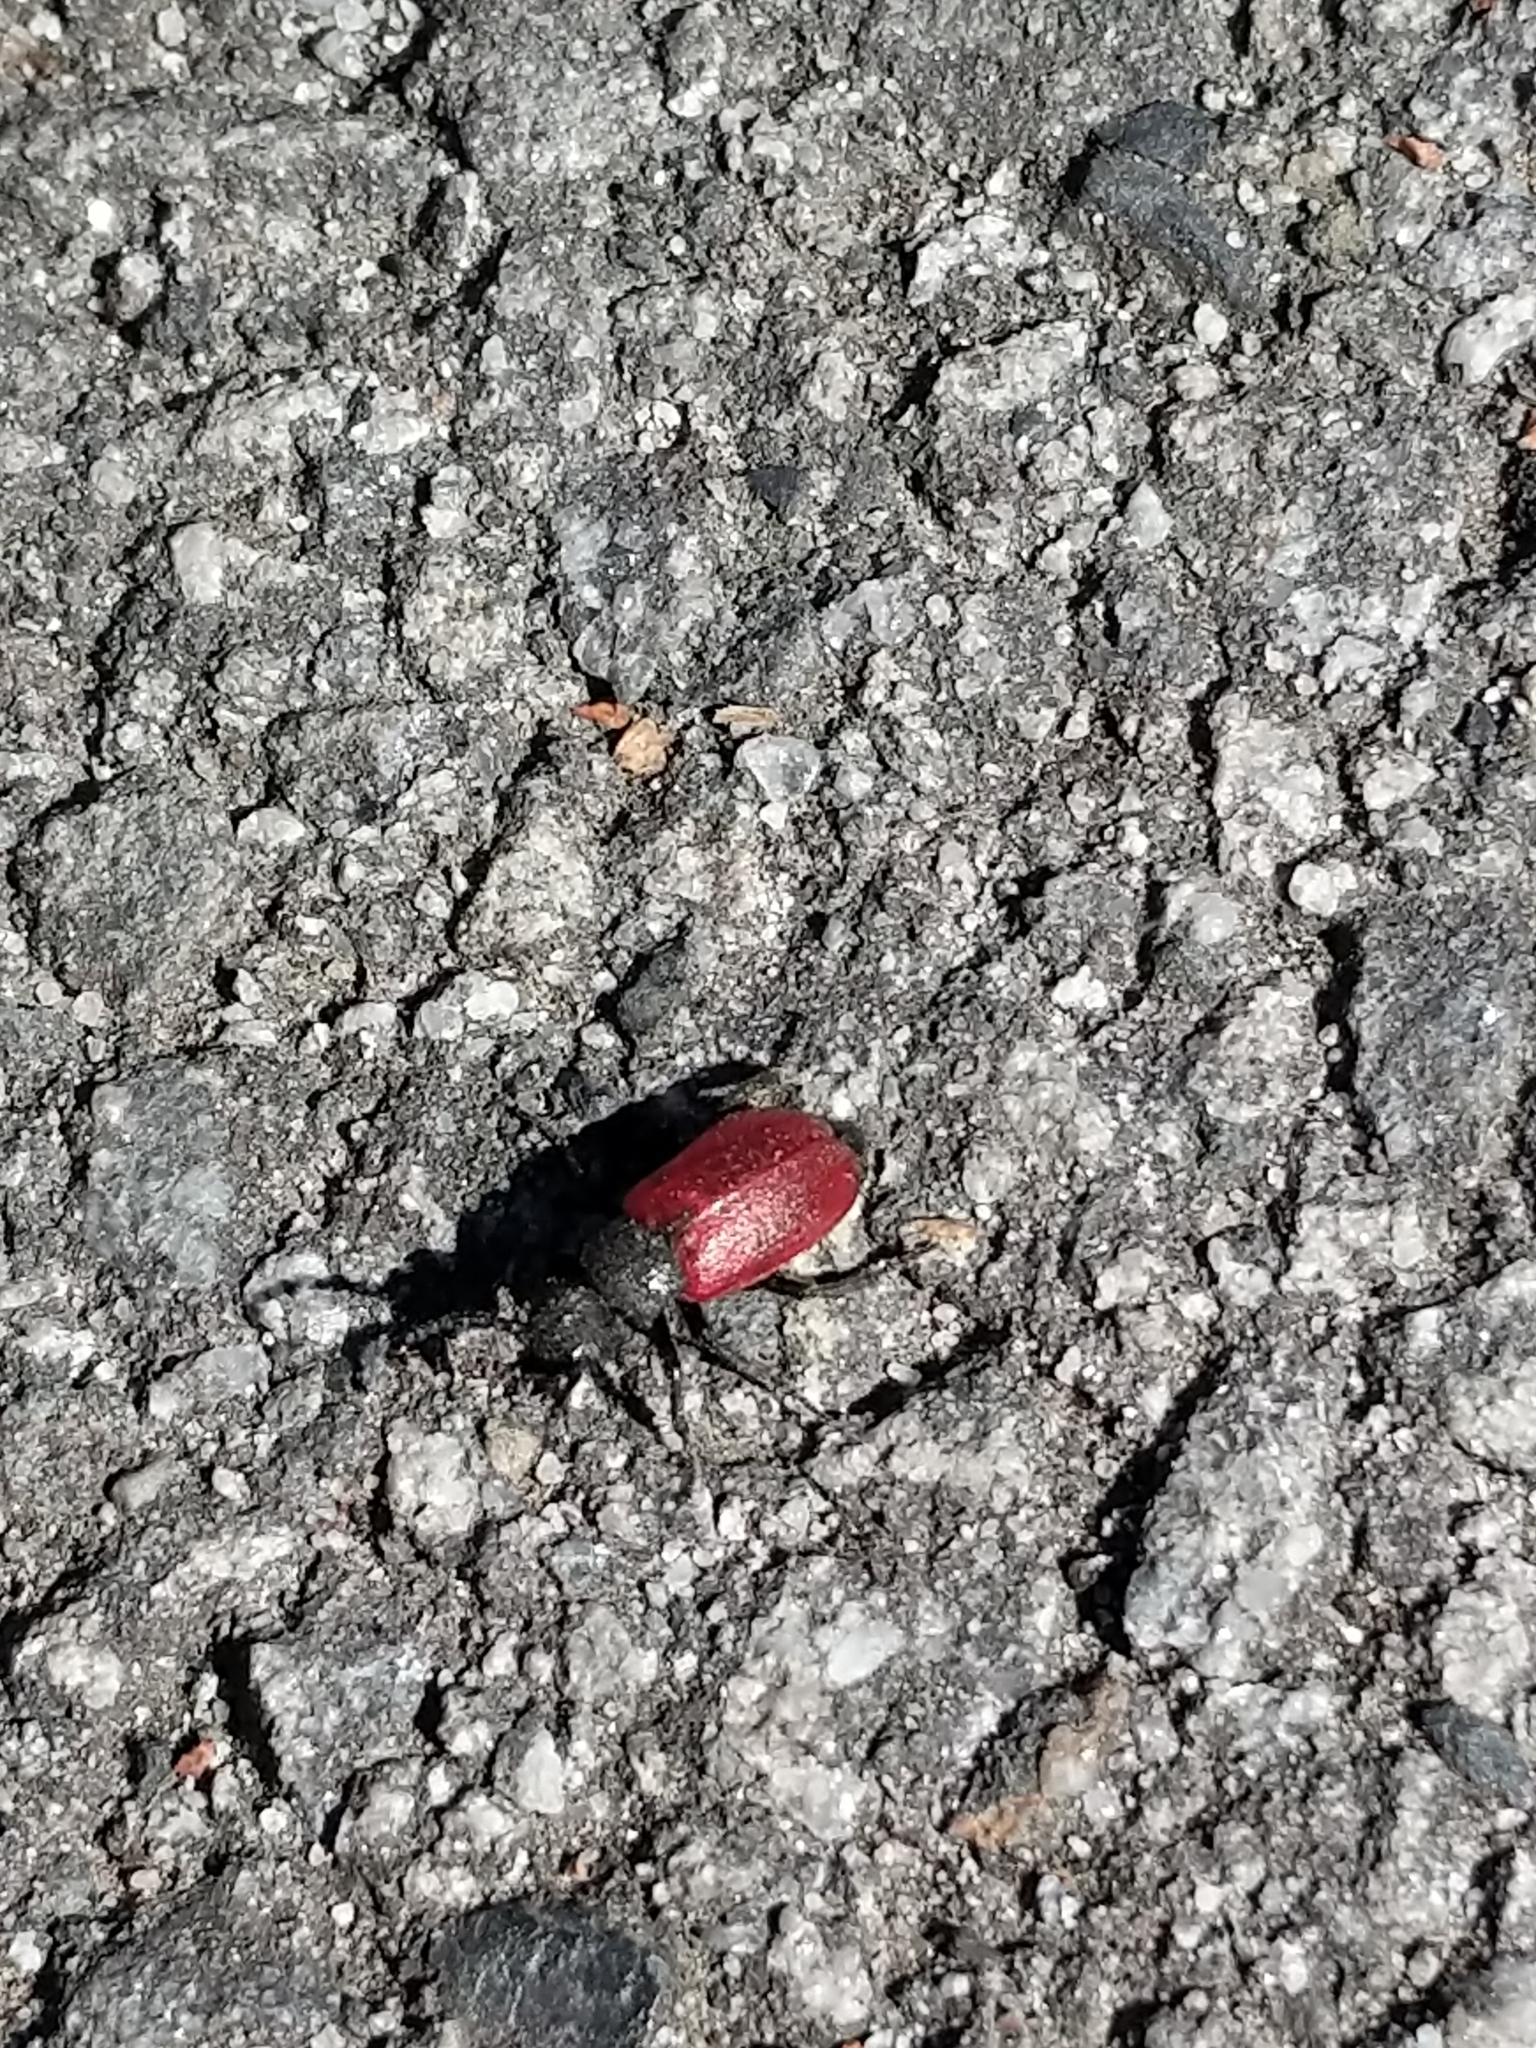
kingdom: Animalia
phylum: Arthropoda
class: Insecta
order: Coleoptera
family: Meloidae
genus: Tricrania
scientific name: Tricrania sanguinipennis
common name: Blood-winged blister beetle
